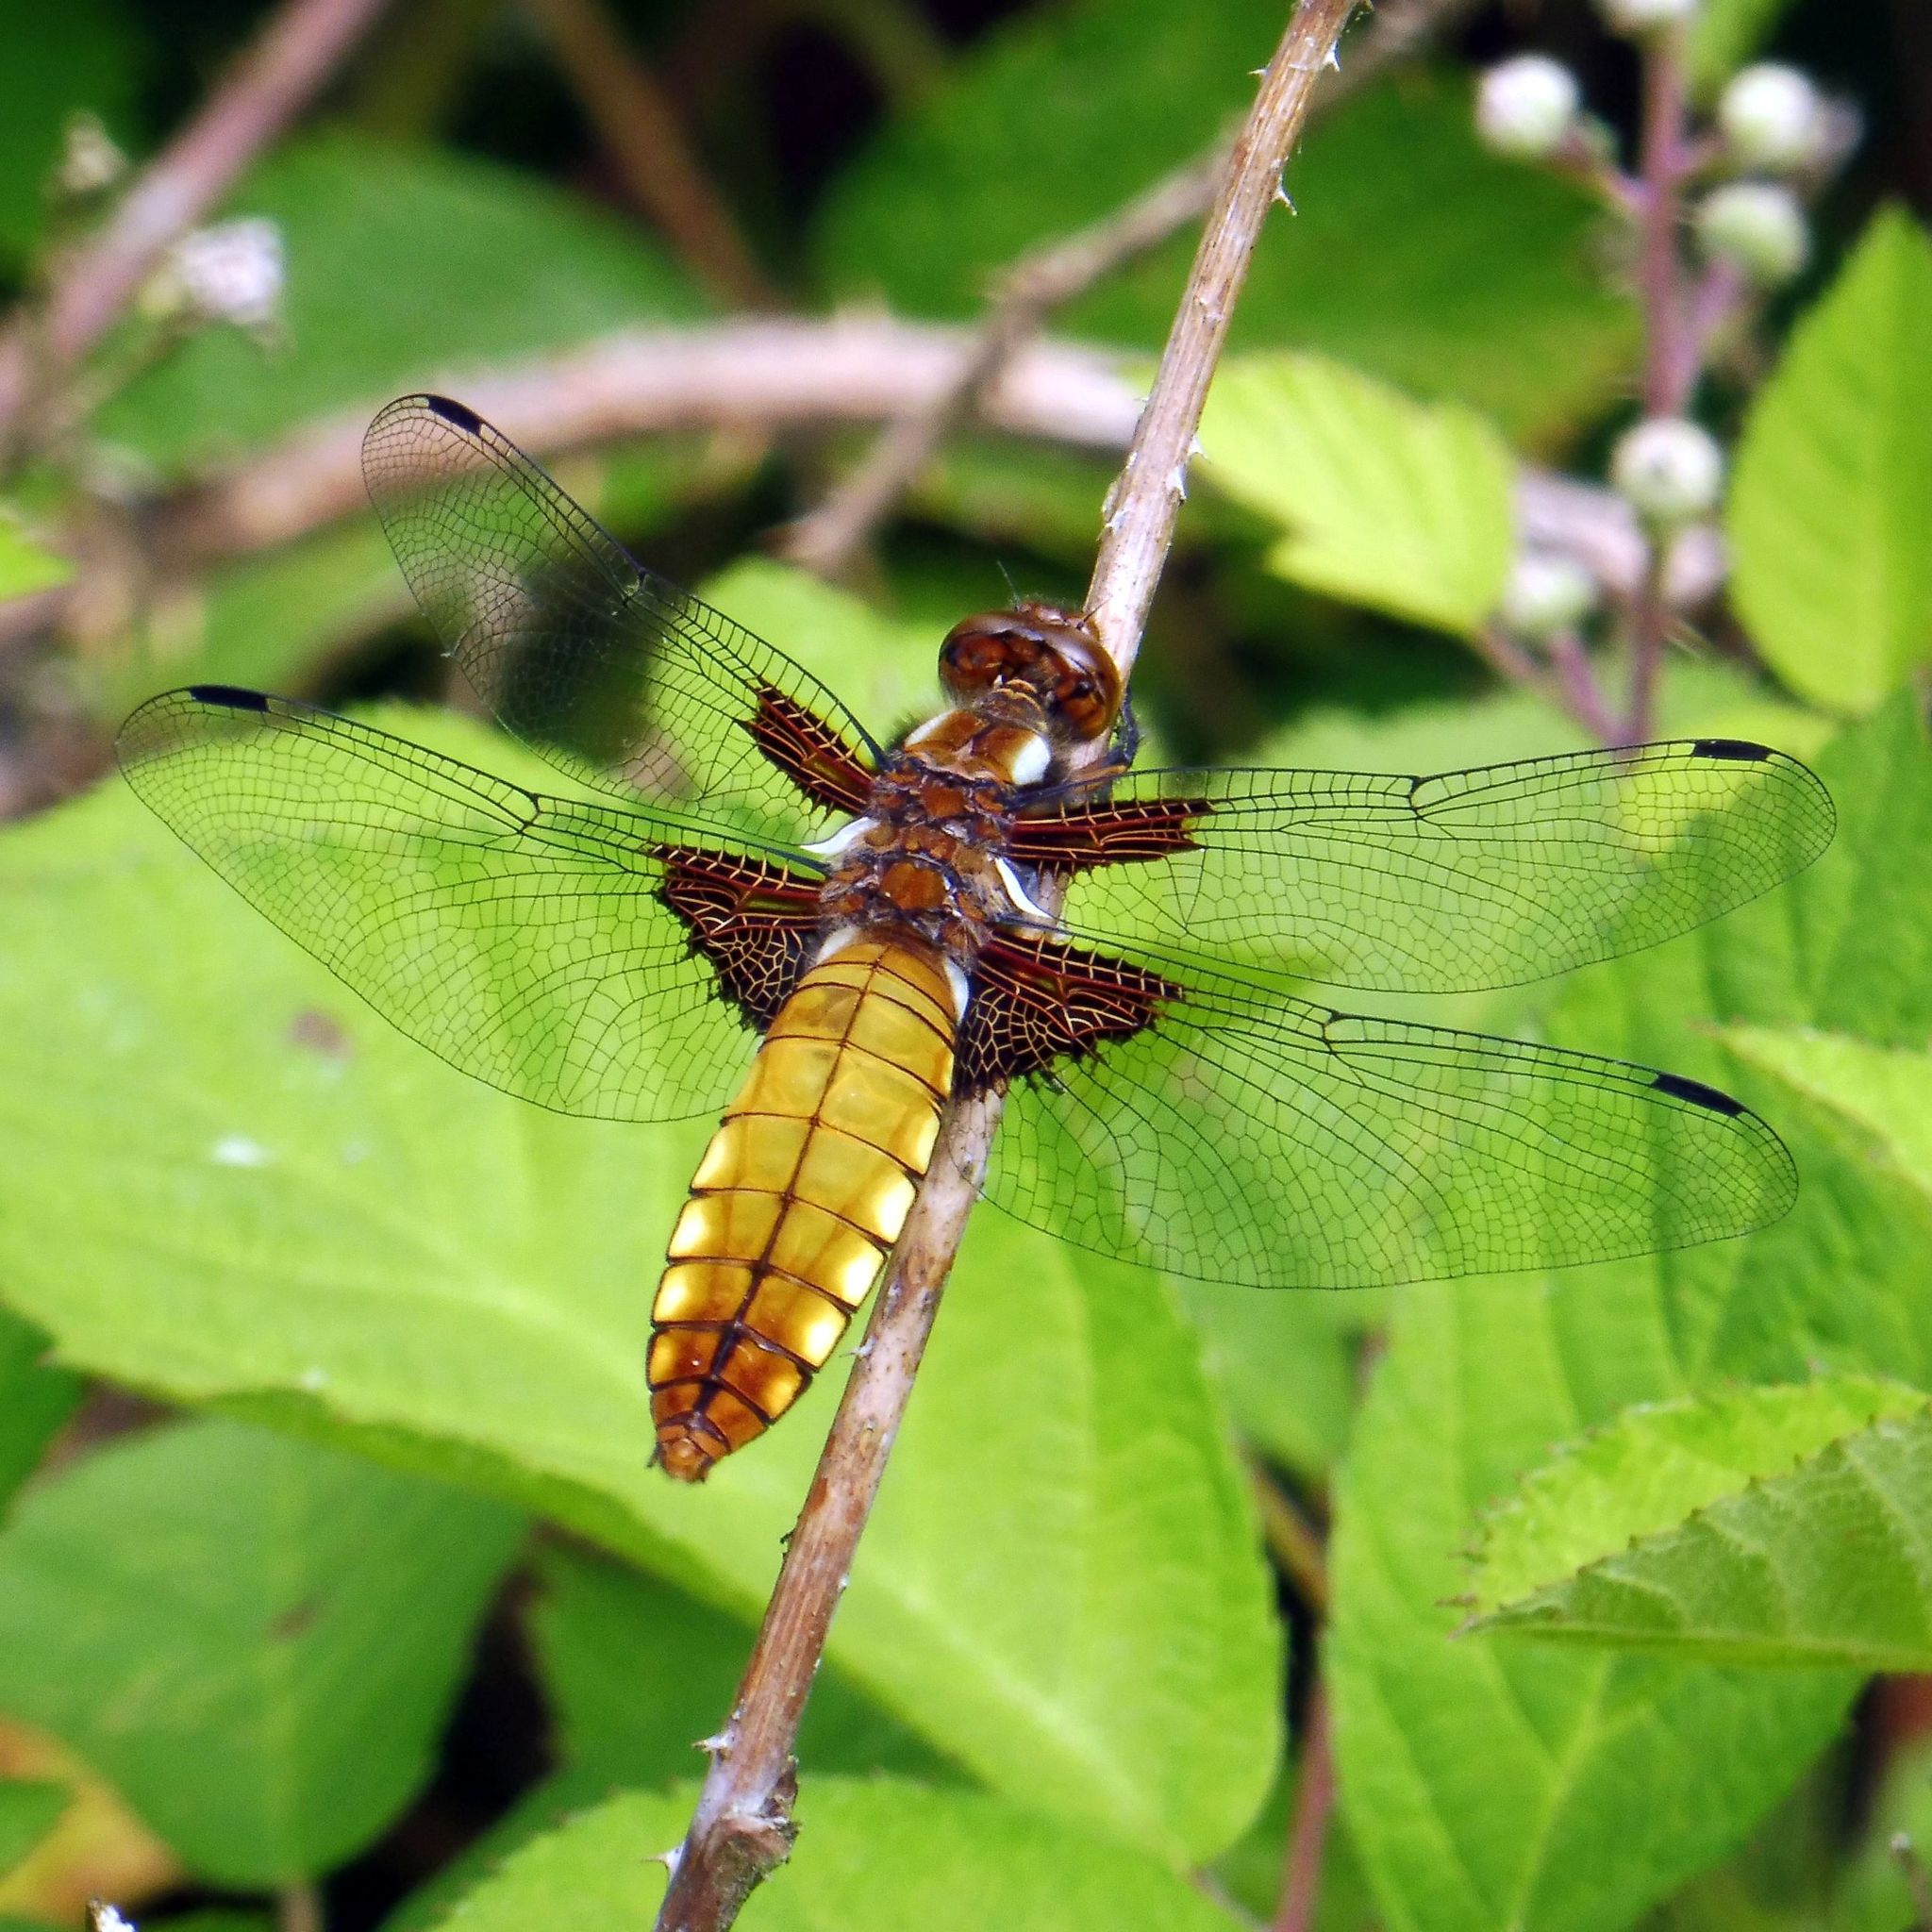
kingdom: Animalia
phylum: Arthropoda
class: Insecta
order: Odonata
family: Libellulidae
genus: Libellula
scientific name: Libellula depressa
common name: Broad-bodied chaser
